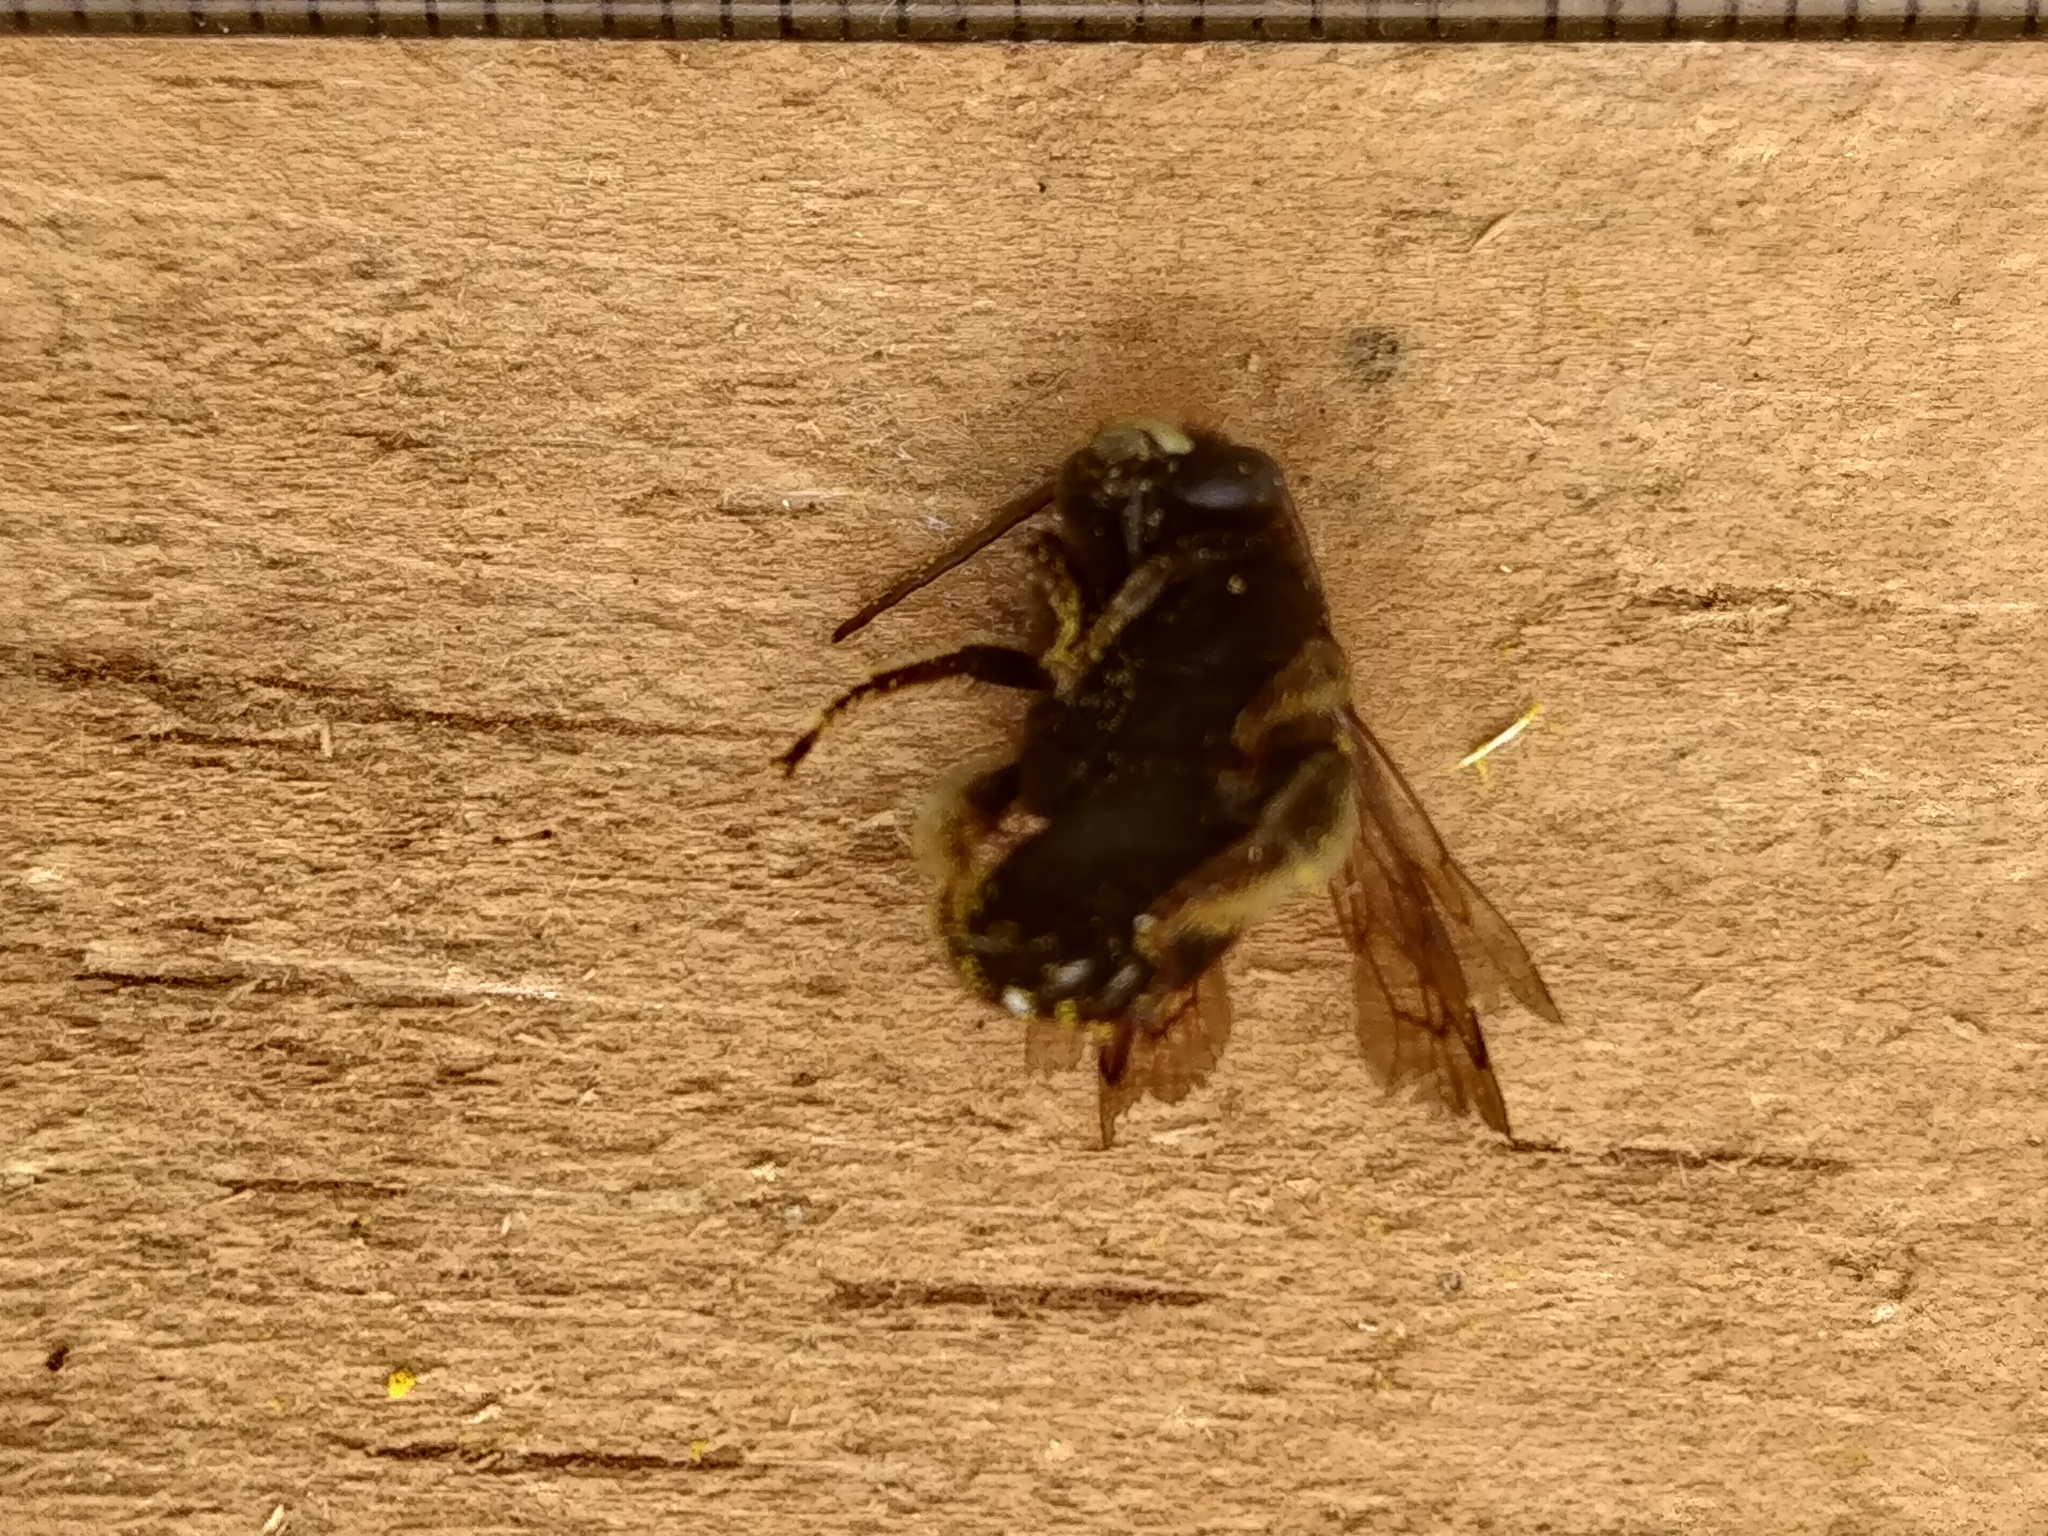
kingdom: Animalia
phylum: Arthropoda
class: Insecta
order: Hymenoptera
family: Apidae
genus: Melissodes
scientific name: Melissodes bimaculatus
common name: Two-spotted long-horned bee
